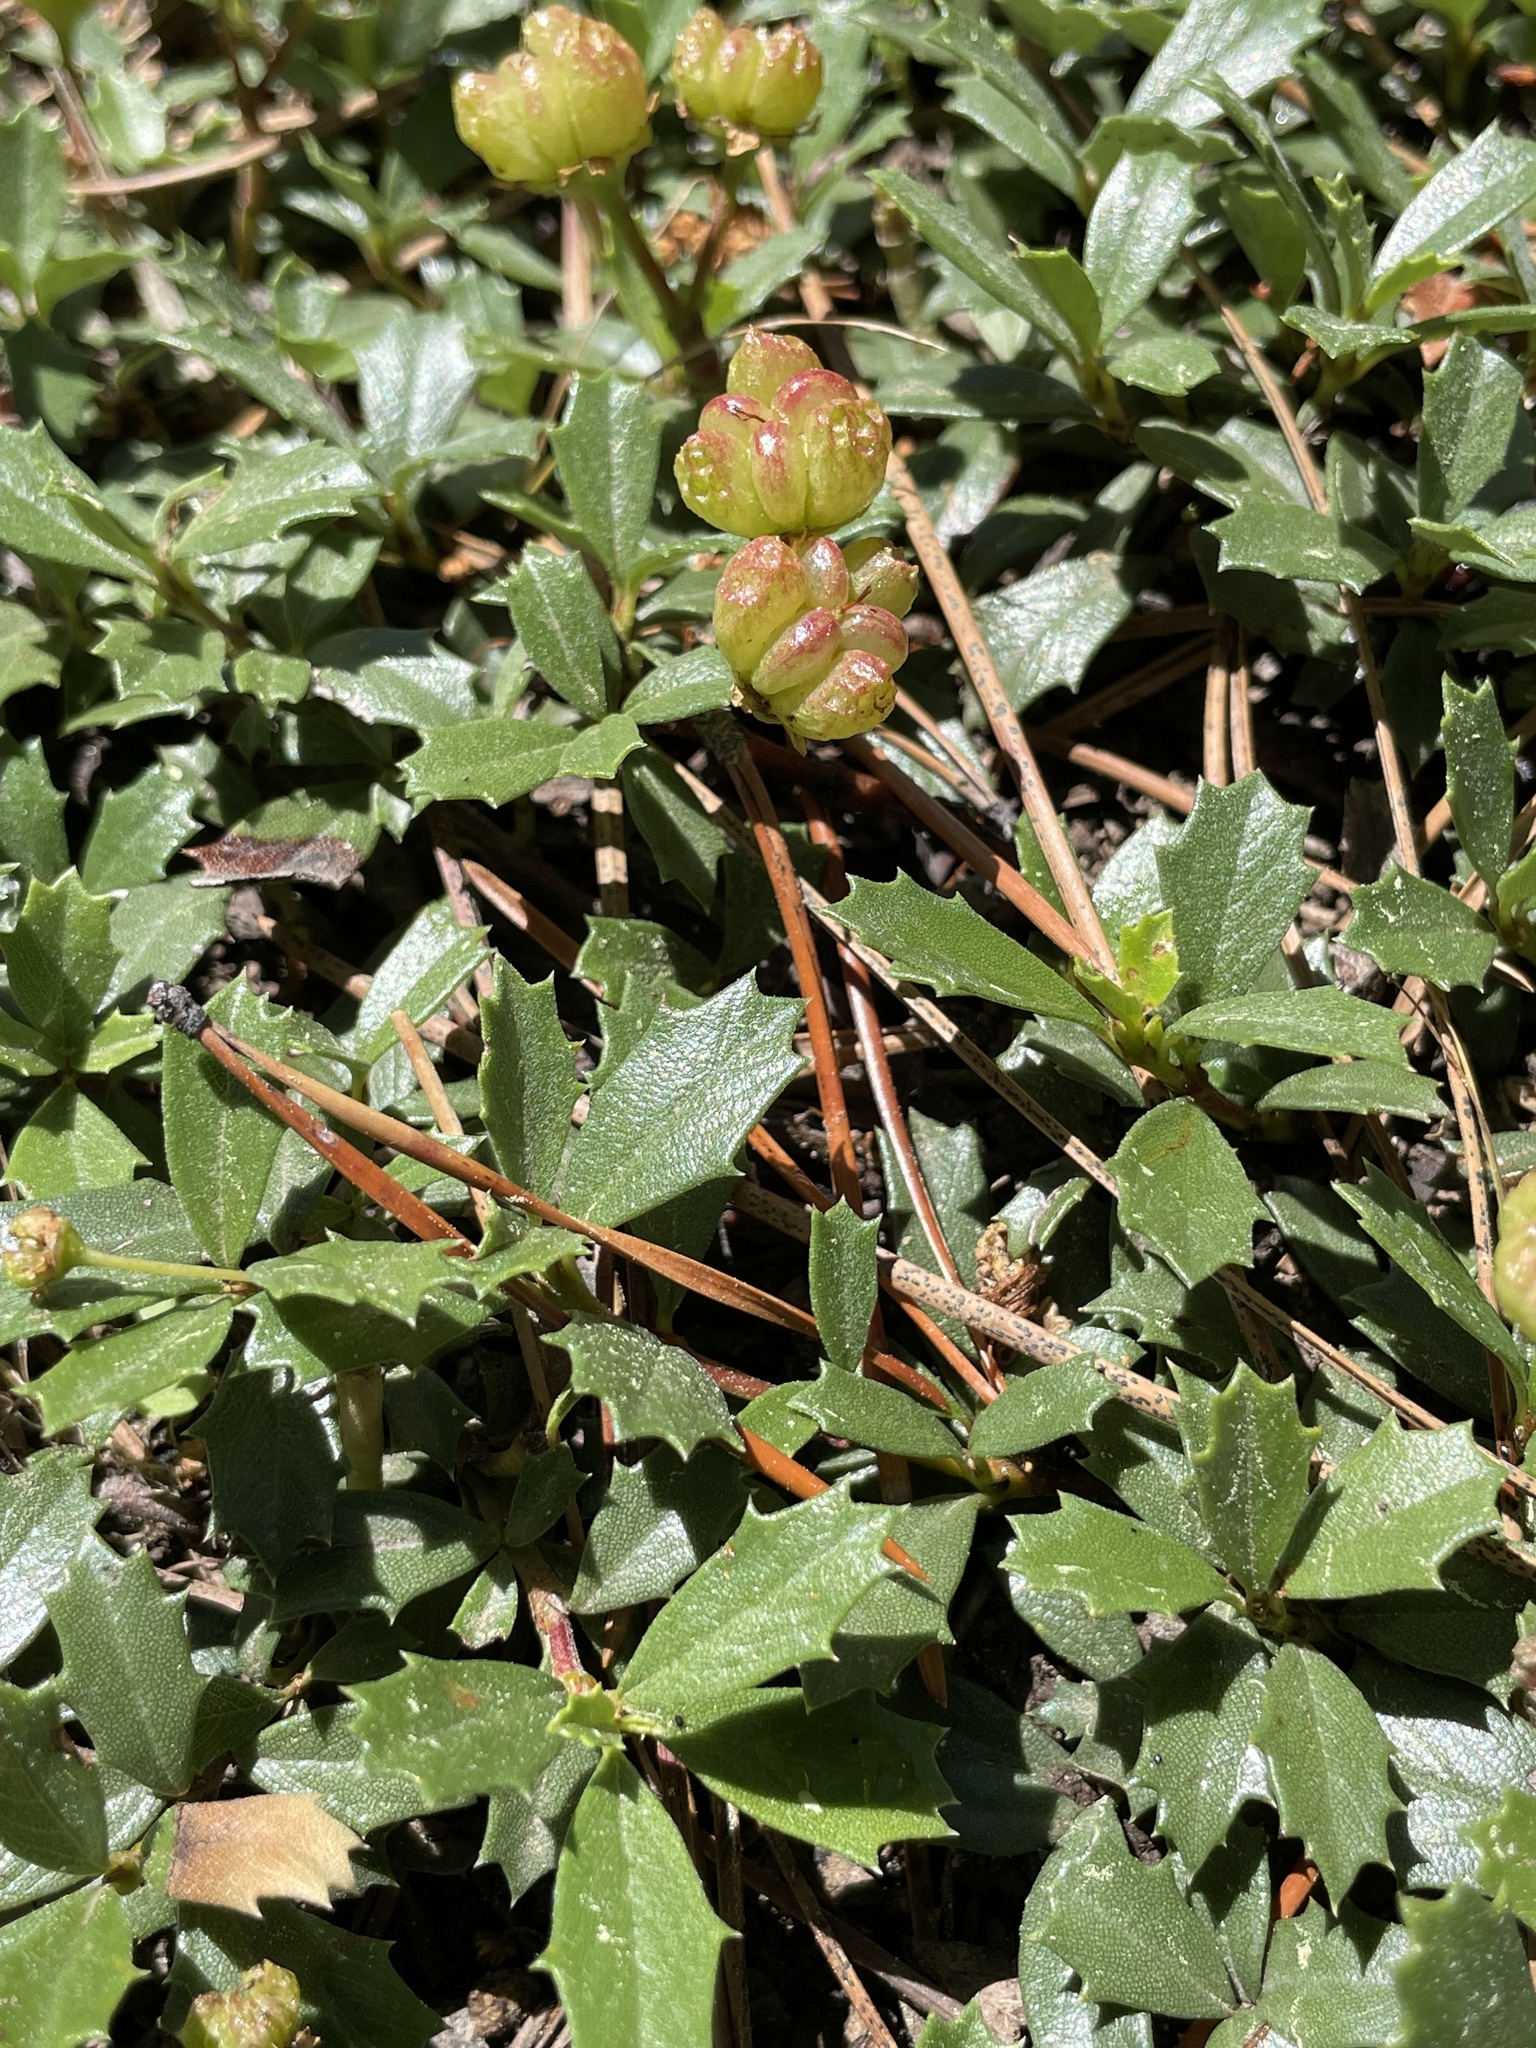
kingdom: Plantae
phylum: Tracheophyta
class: Magnoliopsida
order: Rosales
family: Rhamnaceae
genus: Ceanothus
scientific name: Ceanothus prostratus
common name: Mahala-mat
